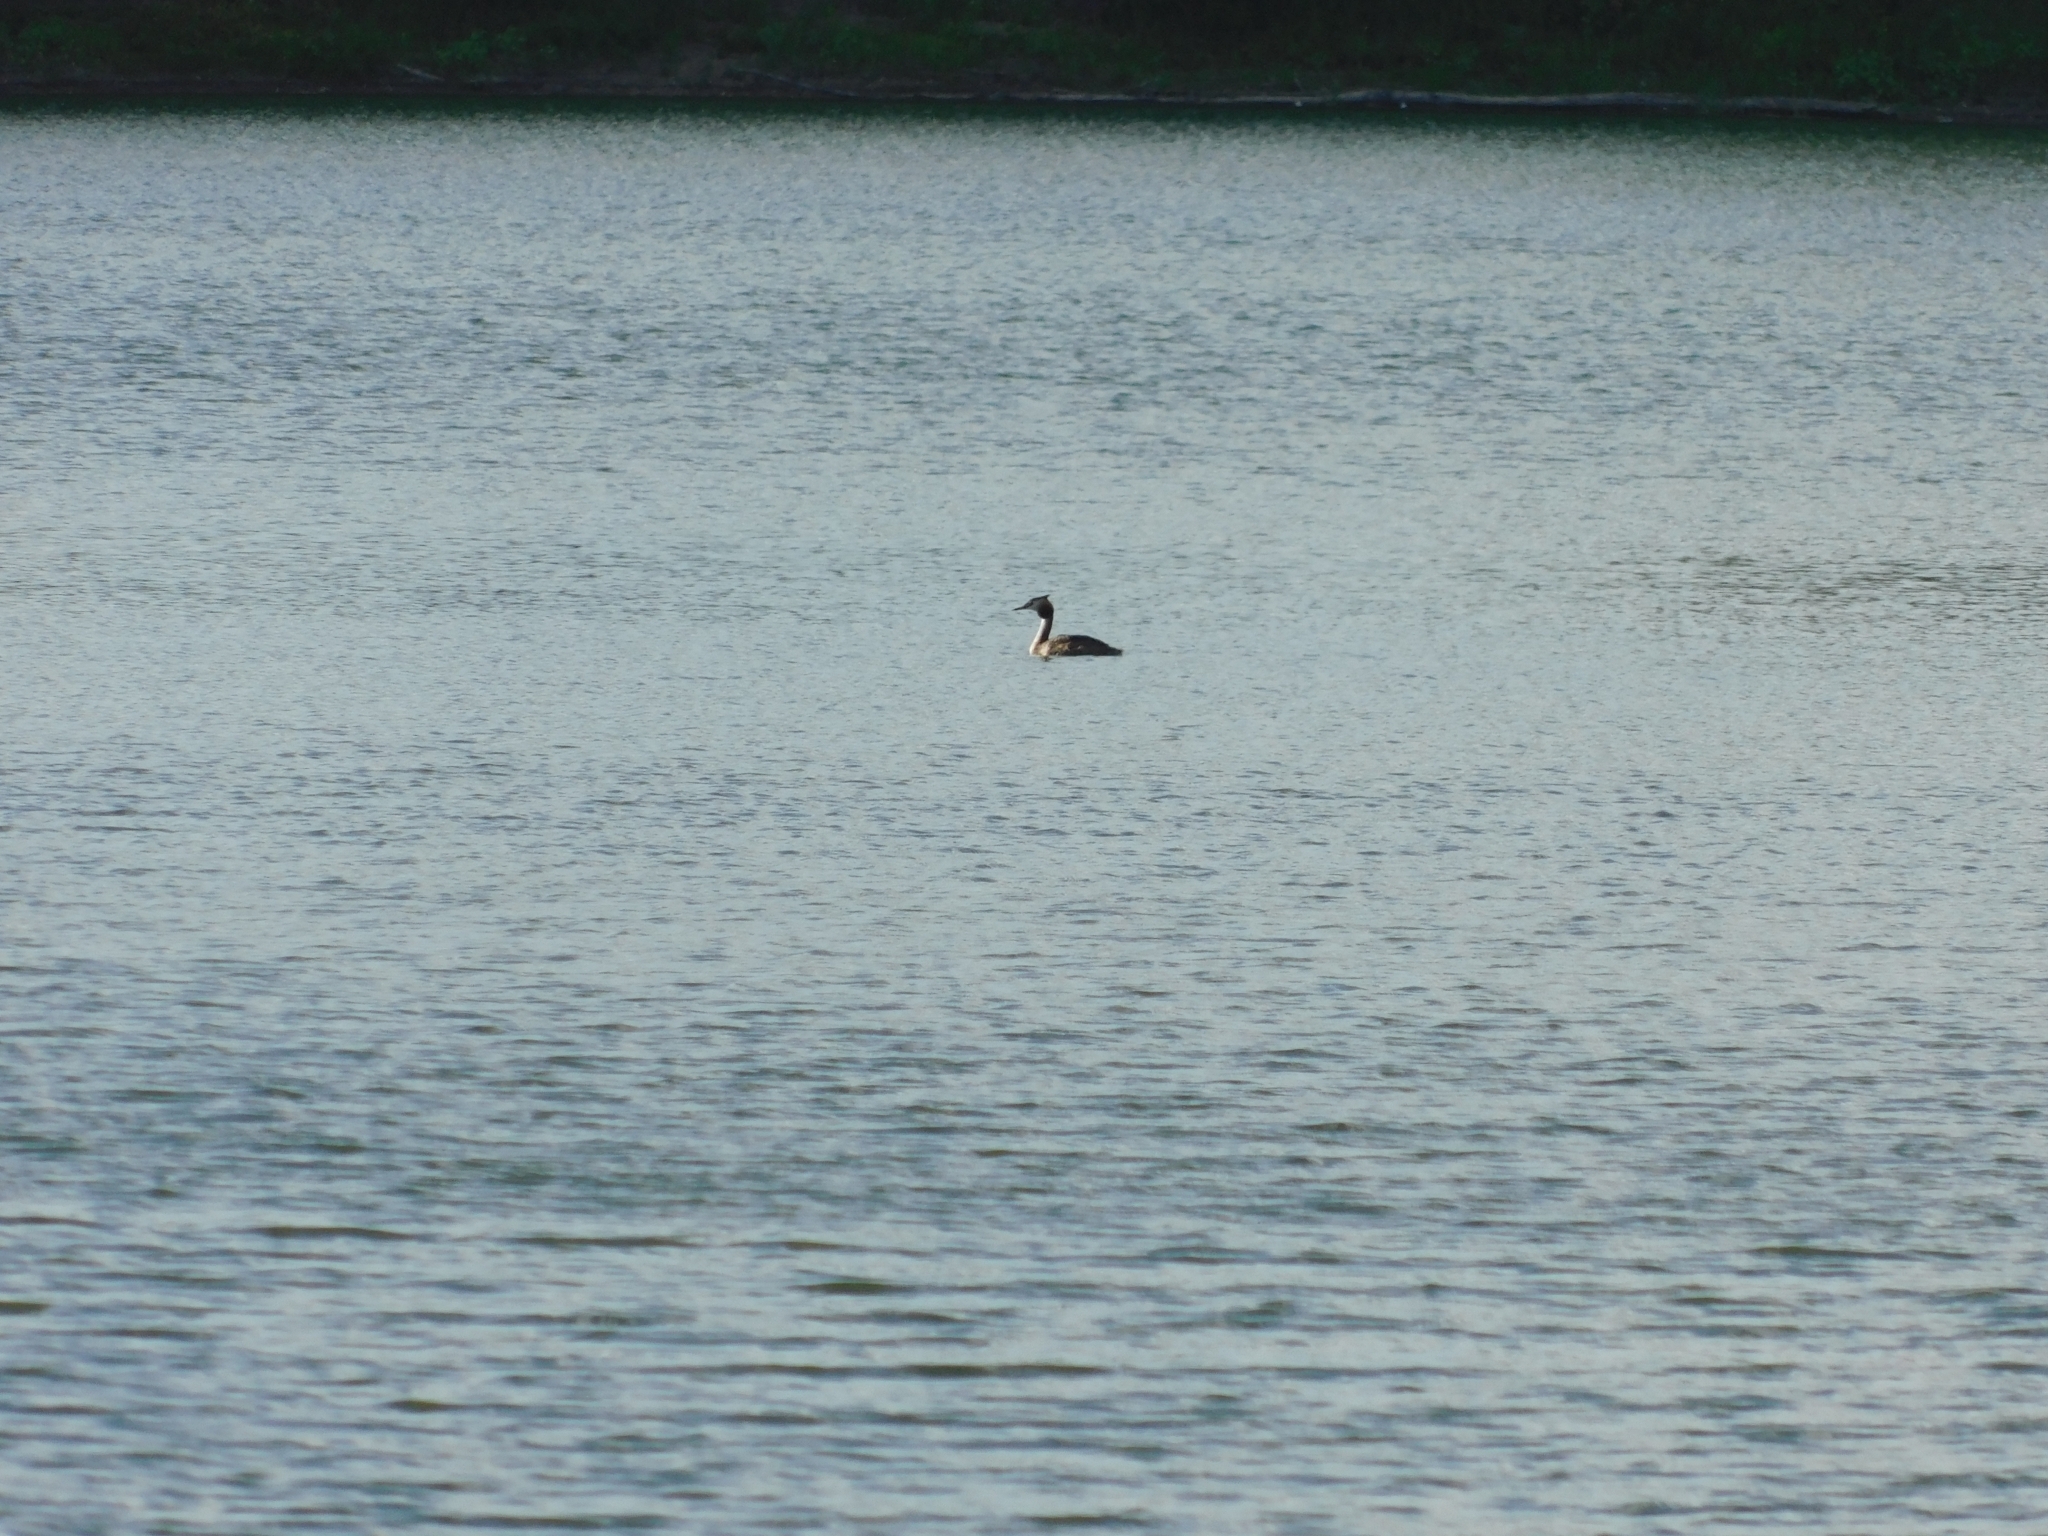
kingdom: Animalia
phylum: Chordata
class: Aves
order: Podicipediformes
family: Podicipedidae
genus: Podiceps
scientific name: Podiceps cristatus
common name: Great crested grebe
